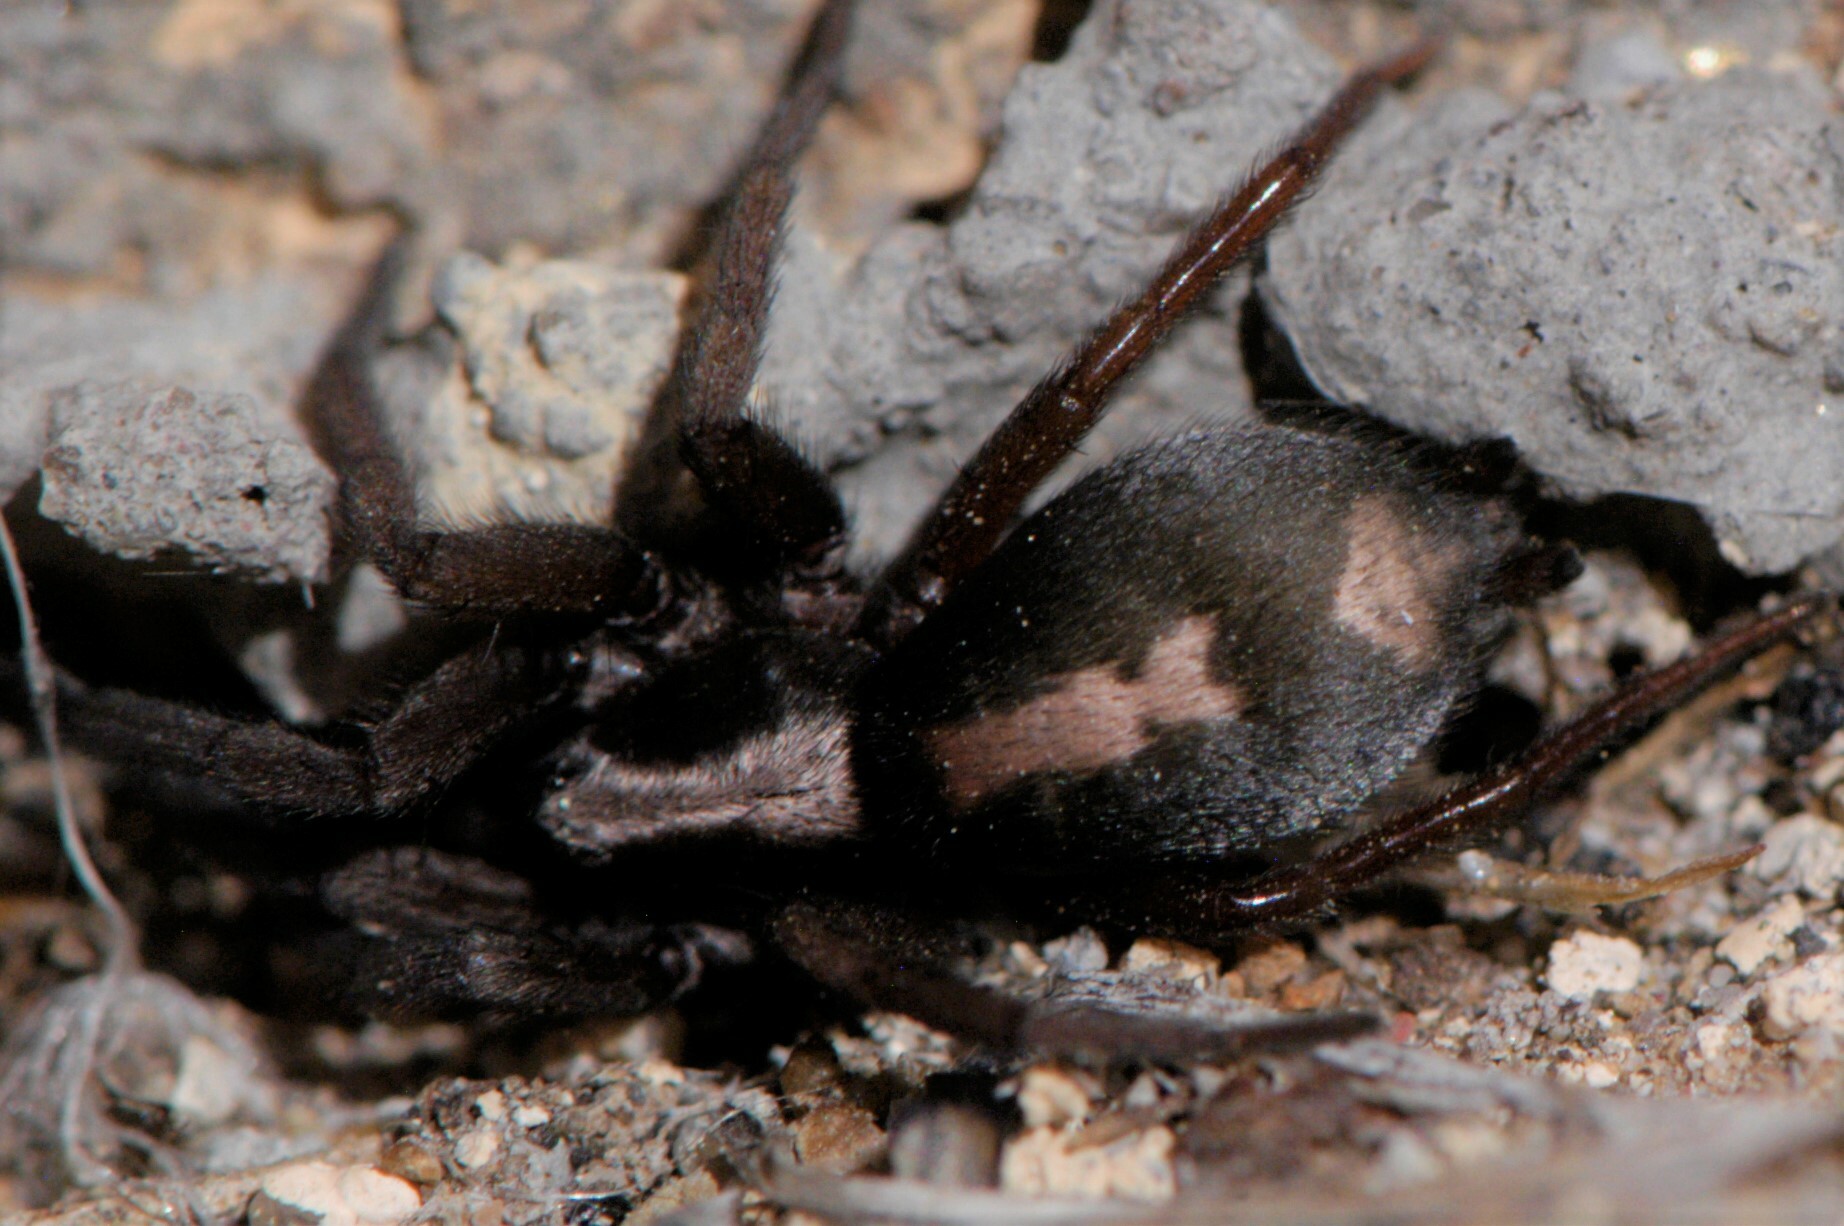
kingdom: Animalia
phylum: Arthropoda
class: Arachnida
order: Araneae
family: Gnaphosidae
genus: Herpyllus
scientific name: Herpyllus propinquus
